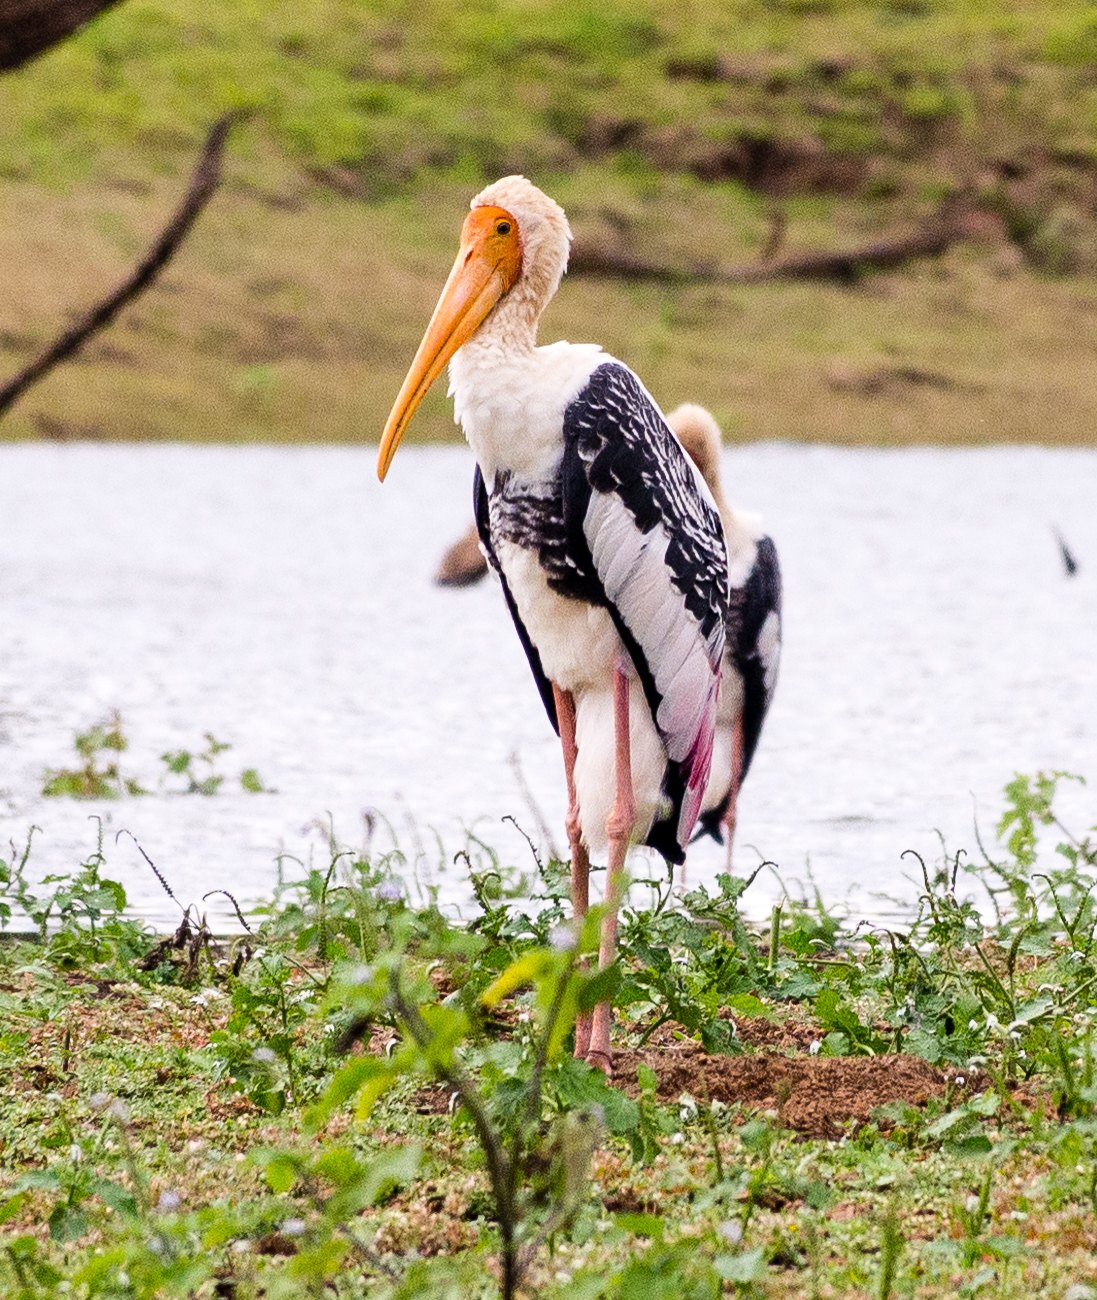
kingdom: Animalia
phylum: Chordata
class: Aves
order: Ciconiiformes
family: Ciconiidae
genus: Mycteria
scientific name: Mycteria leucocephala
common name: Painted stork
